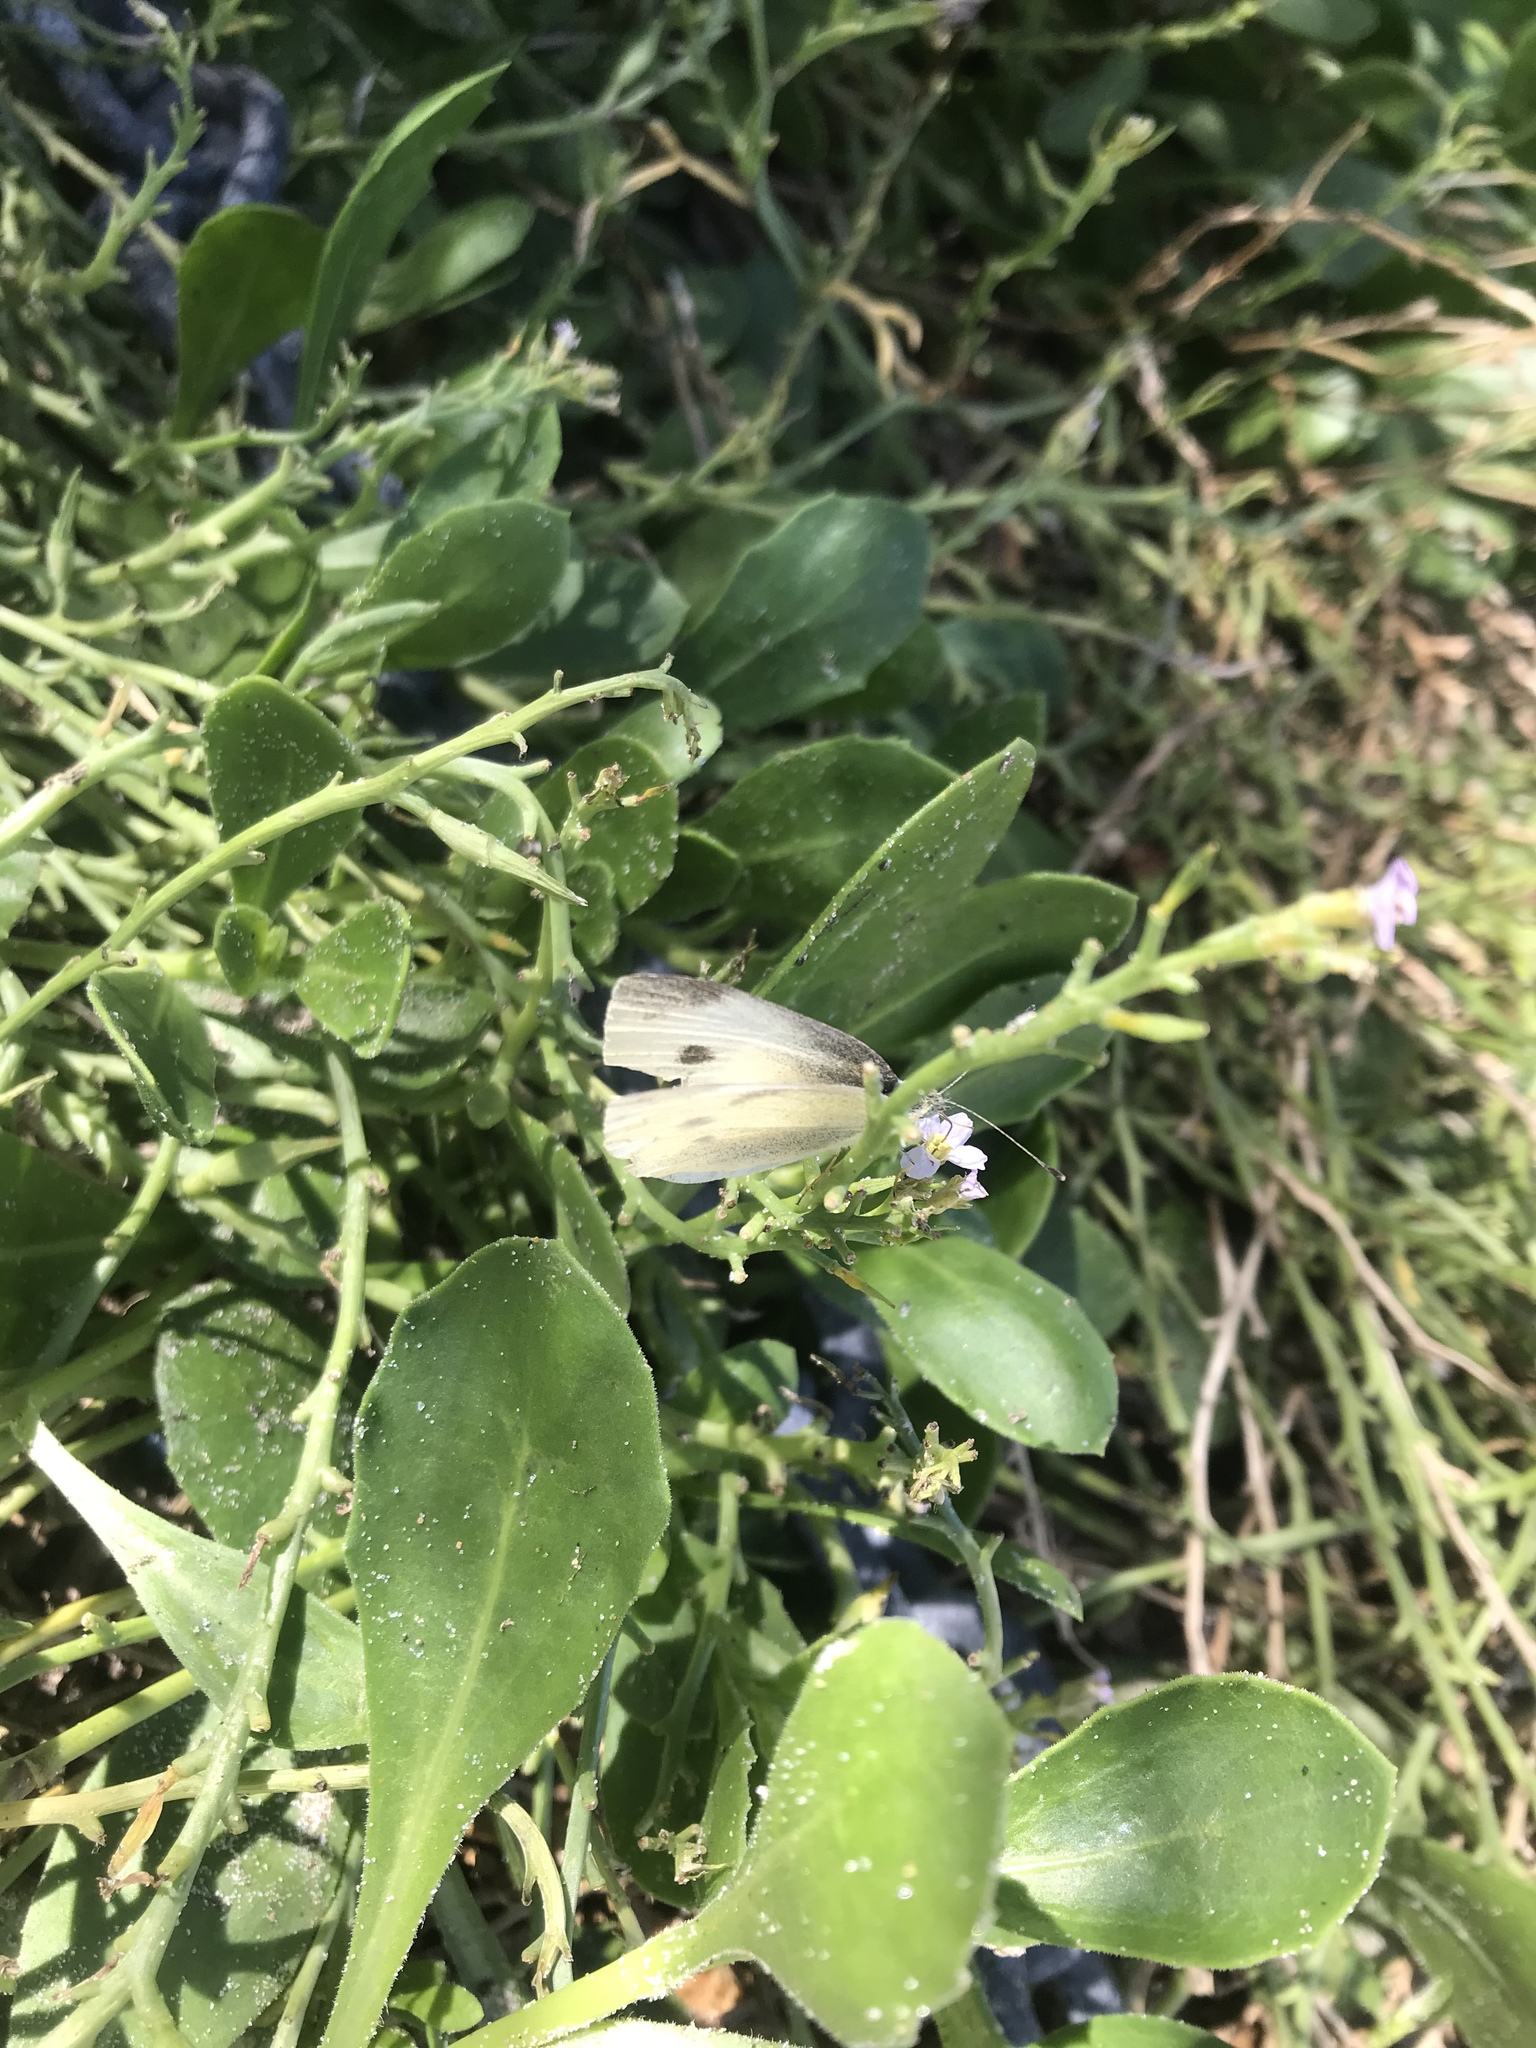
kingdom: Animalia
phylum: Arthropoda
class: Insecta
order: Lepidoptera
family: Pieridae
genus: Pieris
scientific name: Pieris rapae
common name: Small white
